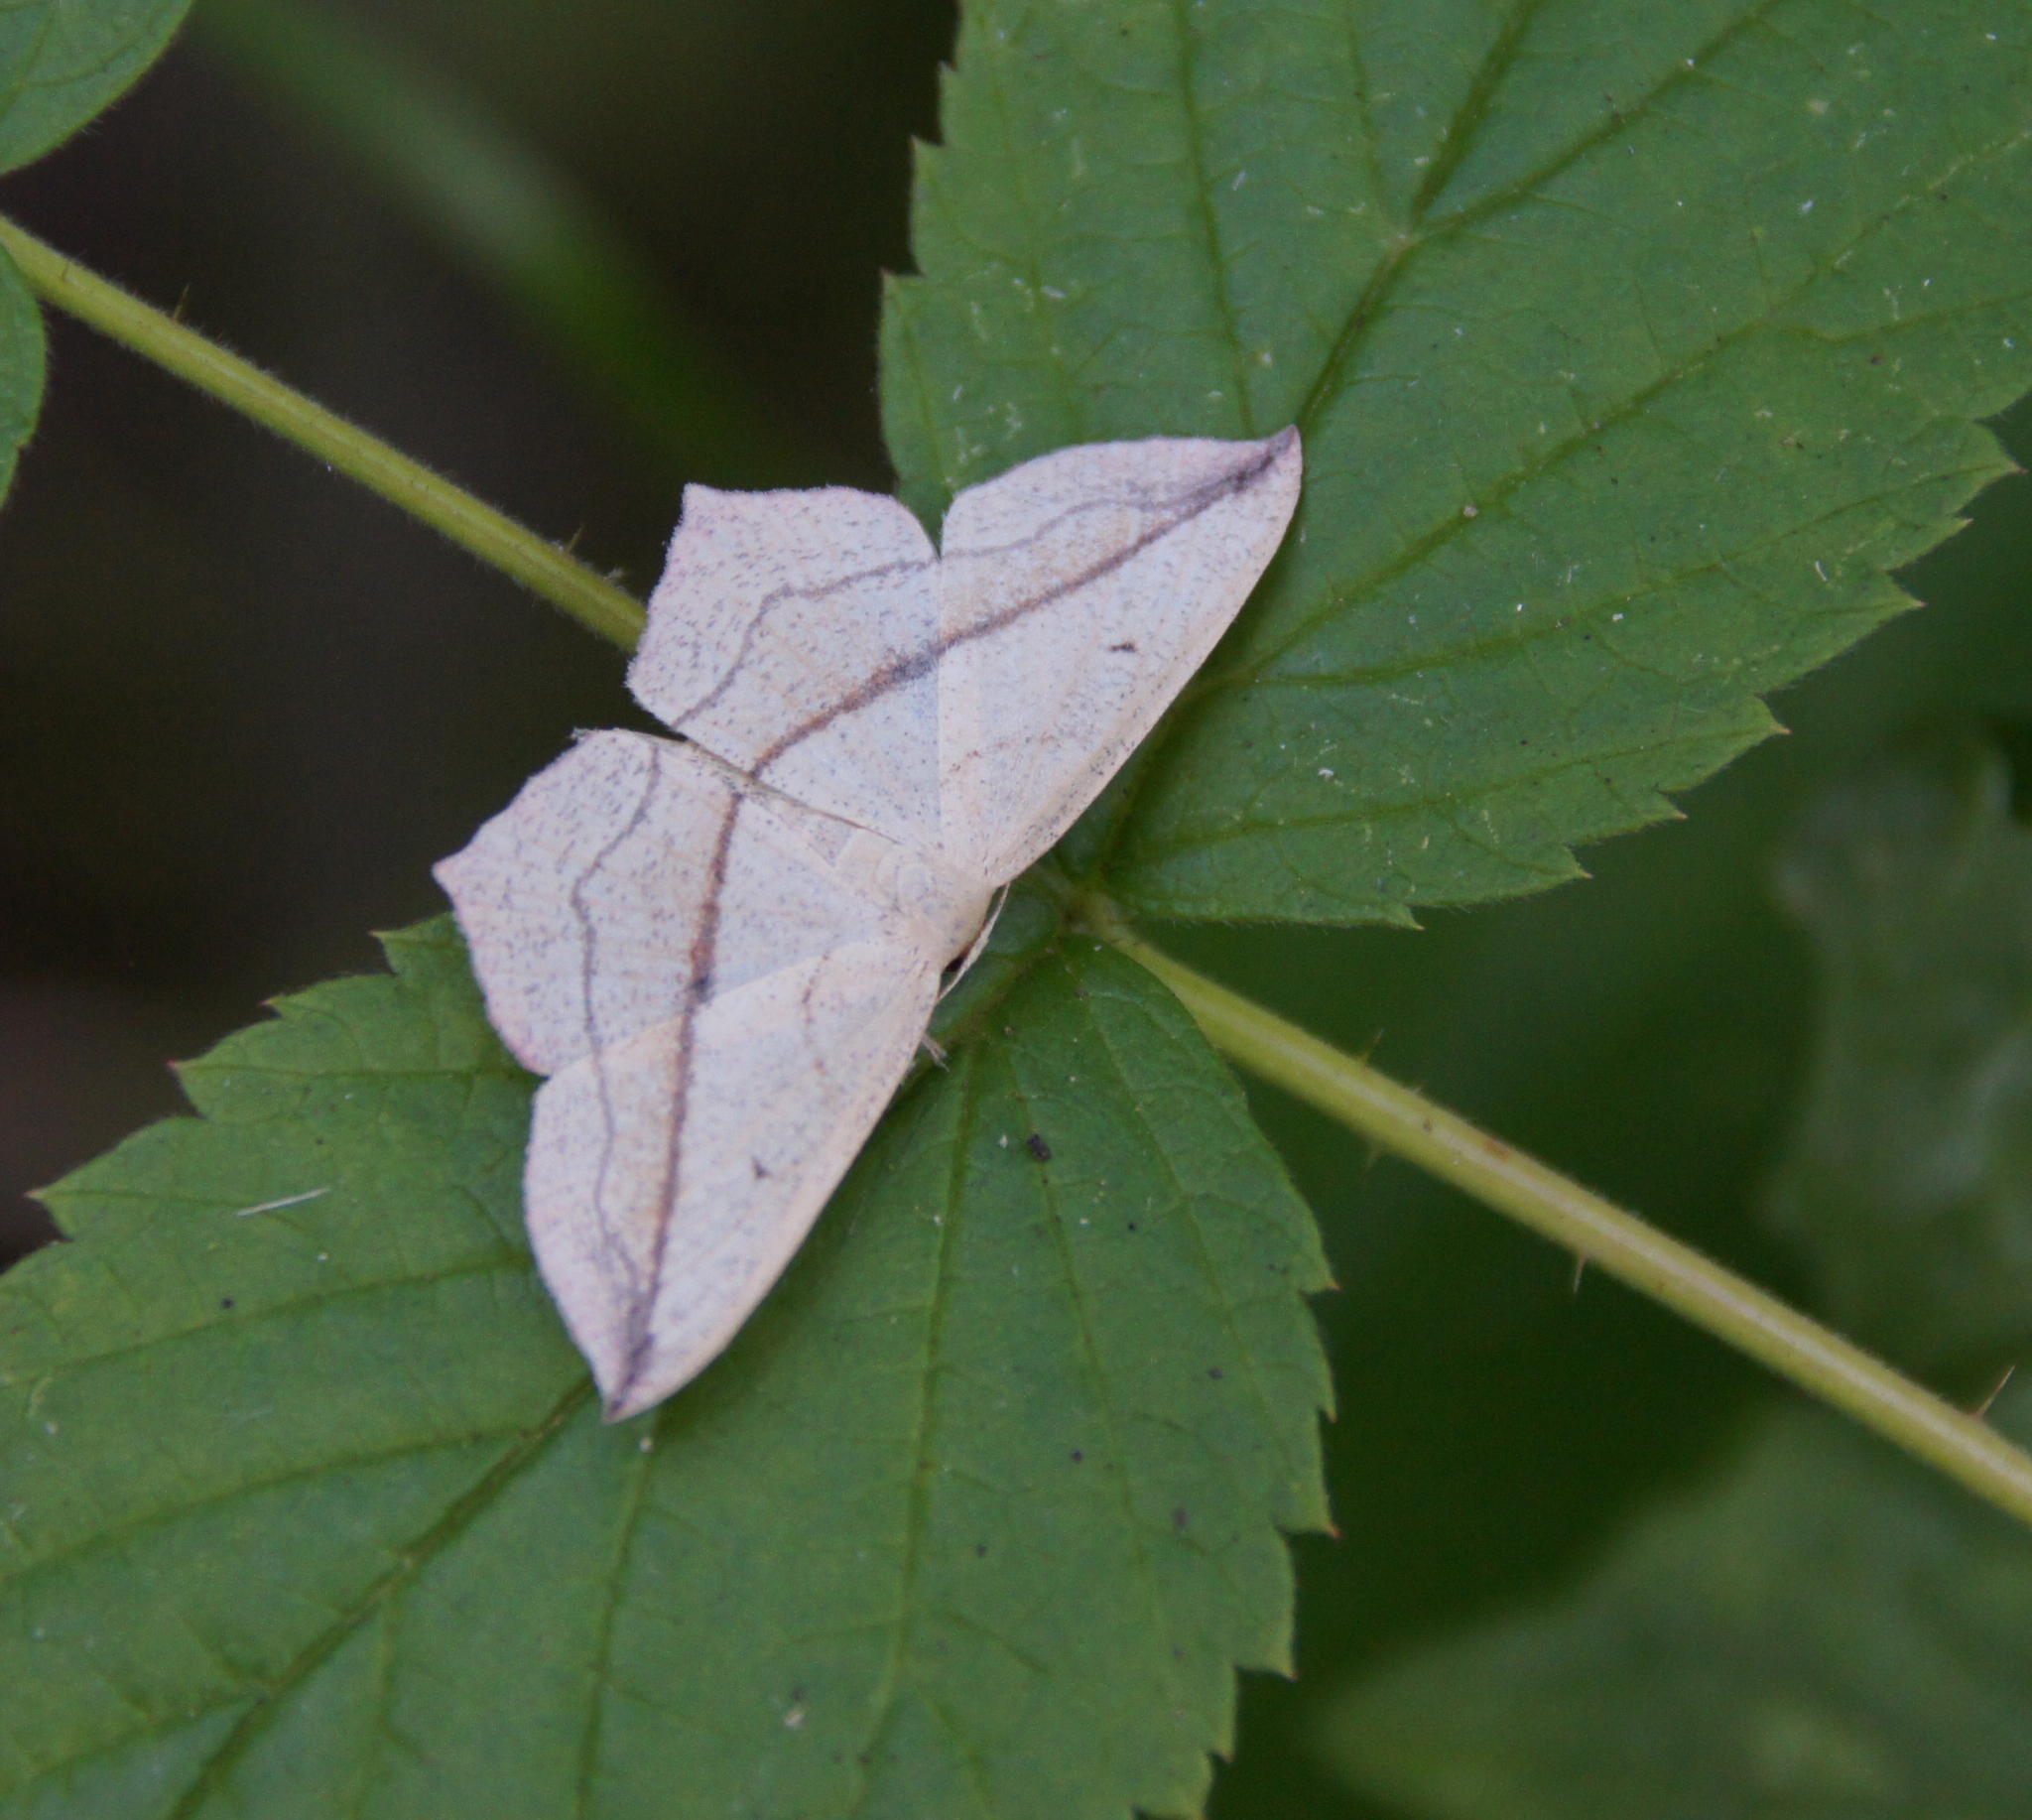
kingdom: Animalia
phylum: Arthropoda
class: Insecta
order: Lepidoptera
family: Geometridae
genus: Timandra
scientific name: Timandra comae
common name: Blood-vein
